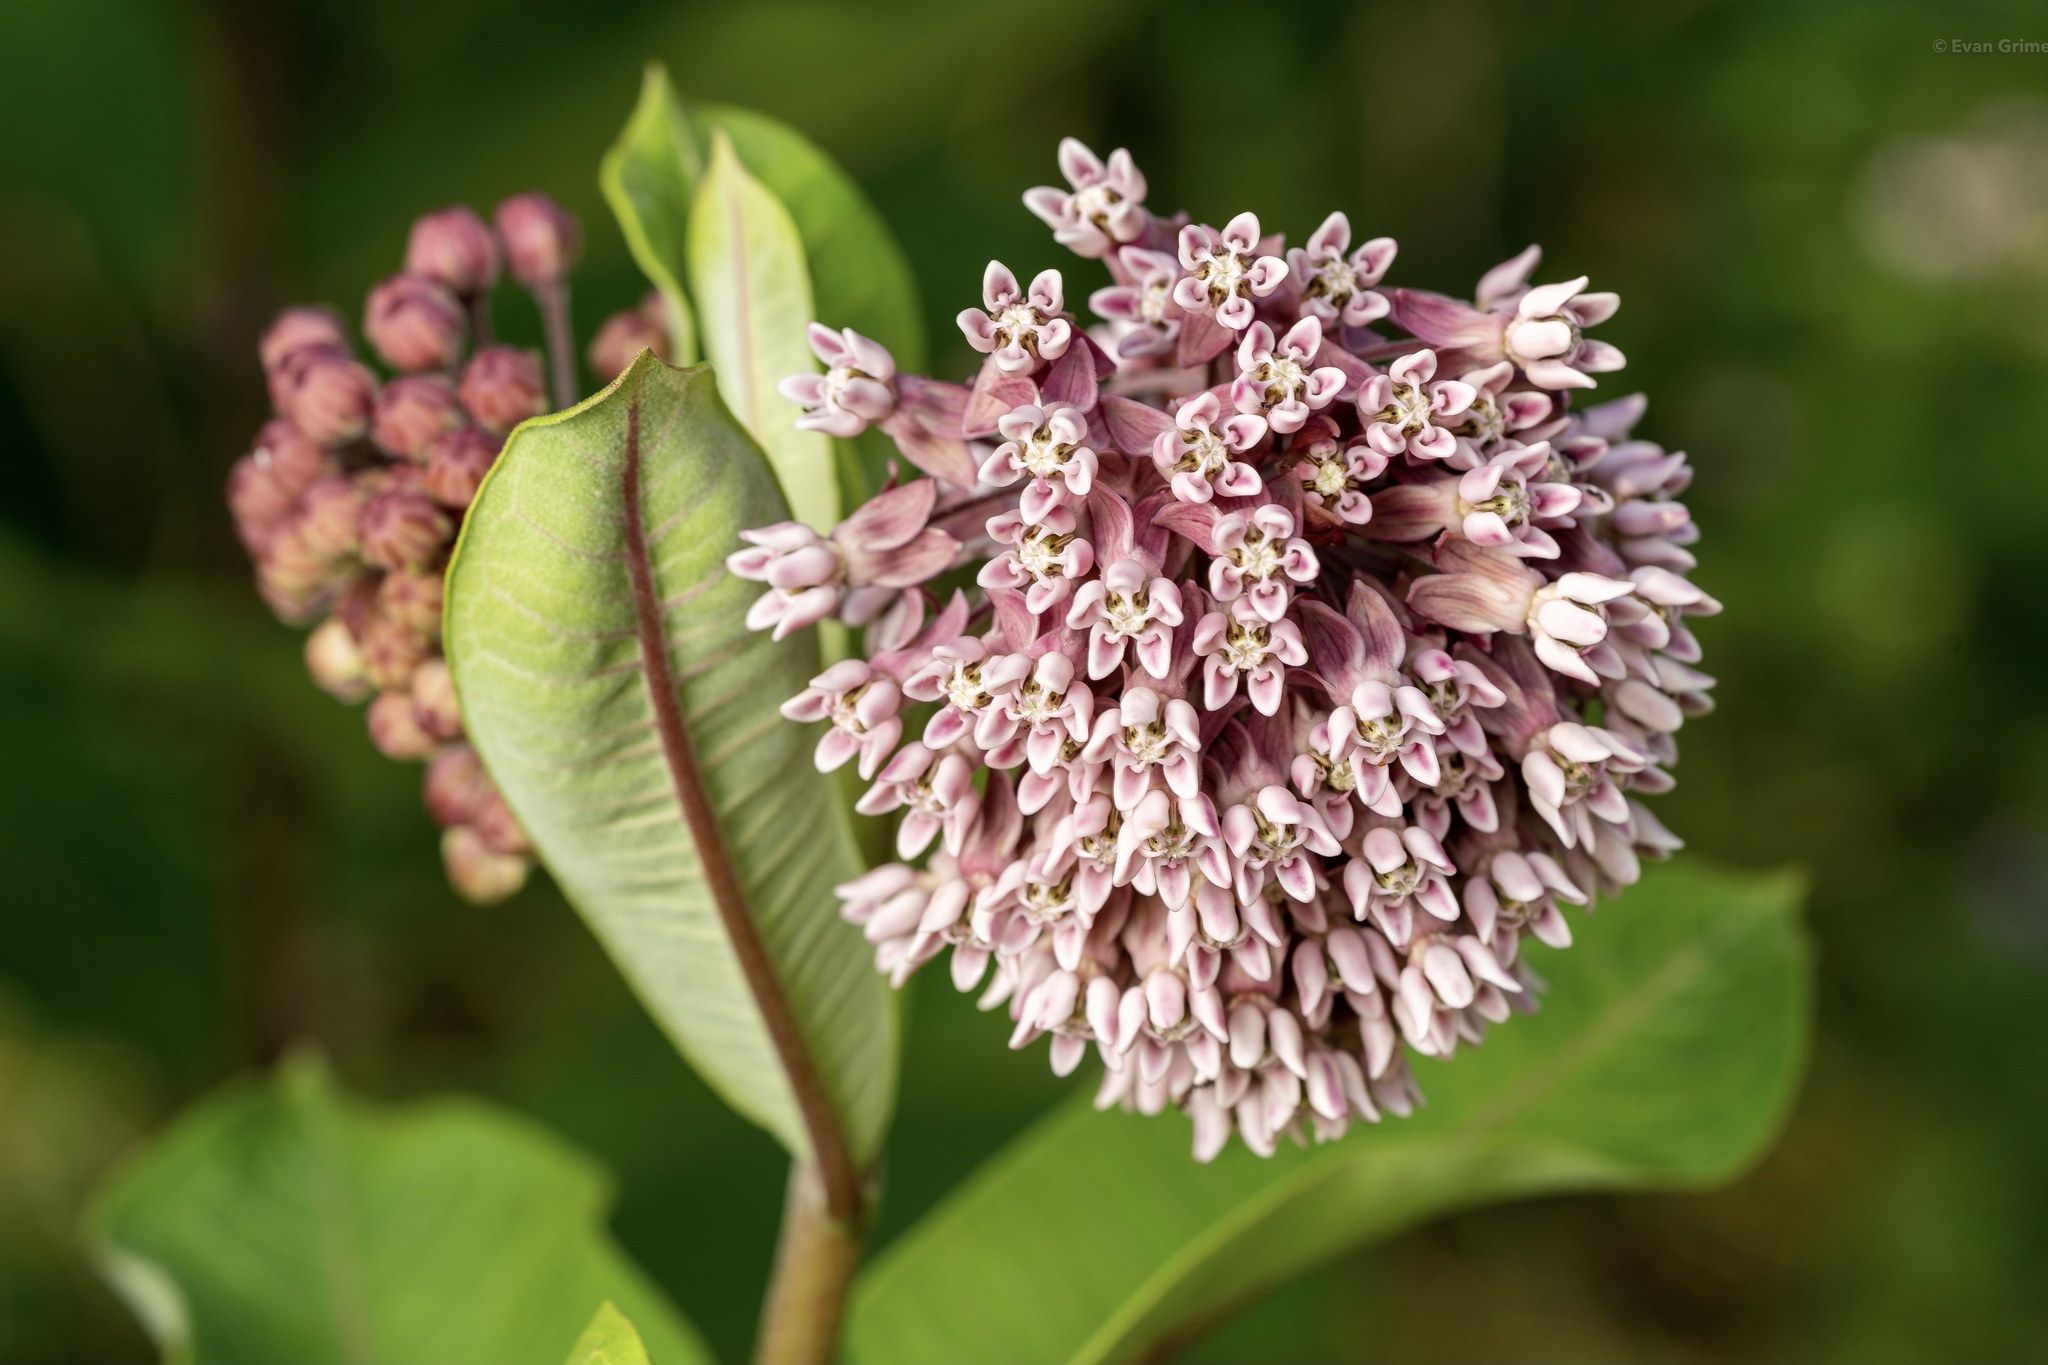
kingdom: Plantae
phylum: Tracheophyta
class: Magnoliopsida
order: Gentianales
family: Apocynaceae
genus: Asclepias
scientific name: Asclepias syriaca
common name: Common milkweed
